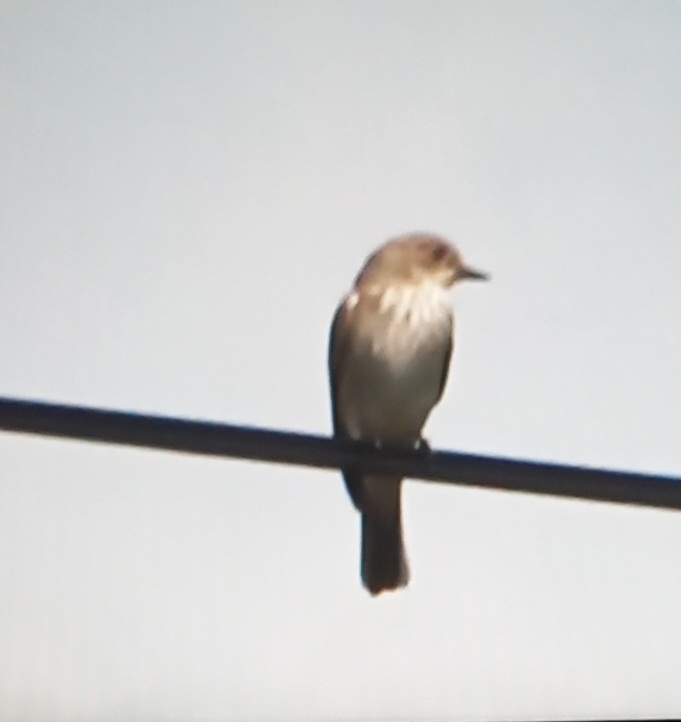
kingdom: Animalia
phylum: Chordata
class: Aves
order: Passeriformes
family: Muscicapidae
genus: Muscicapa
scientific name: Muscicapa striata
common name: Spotted flycatcher
